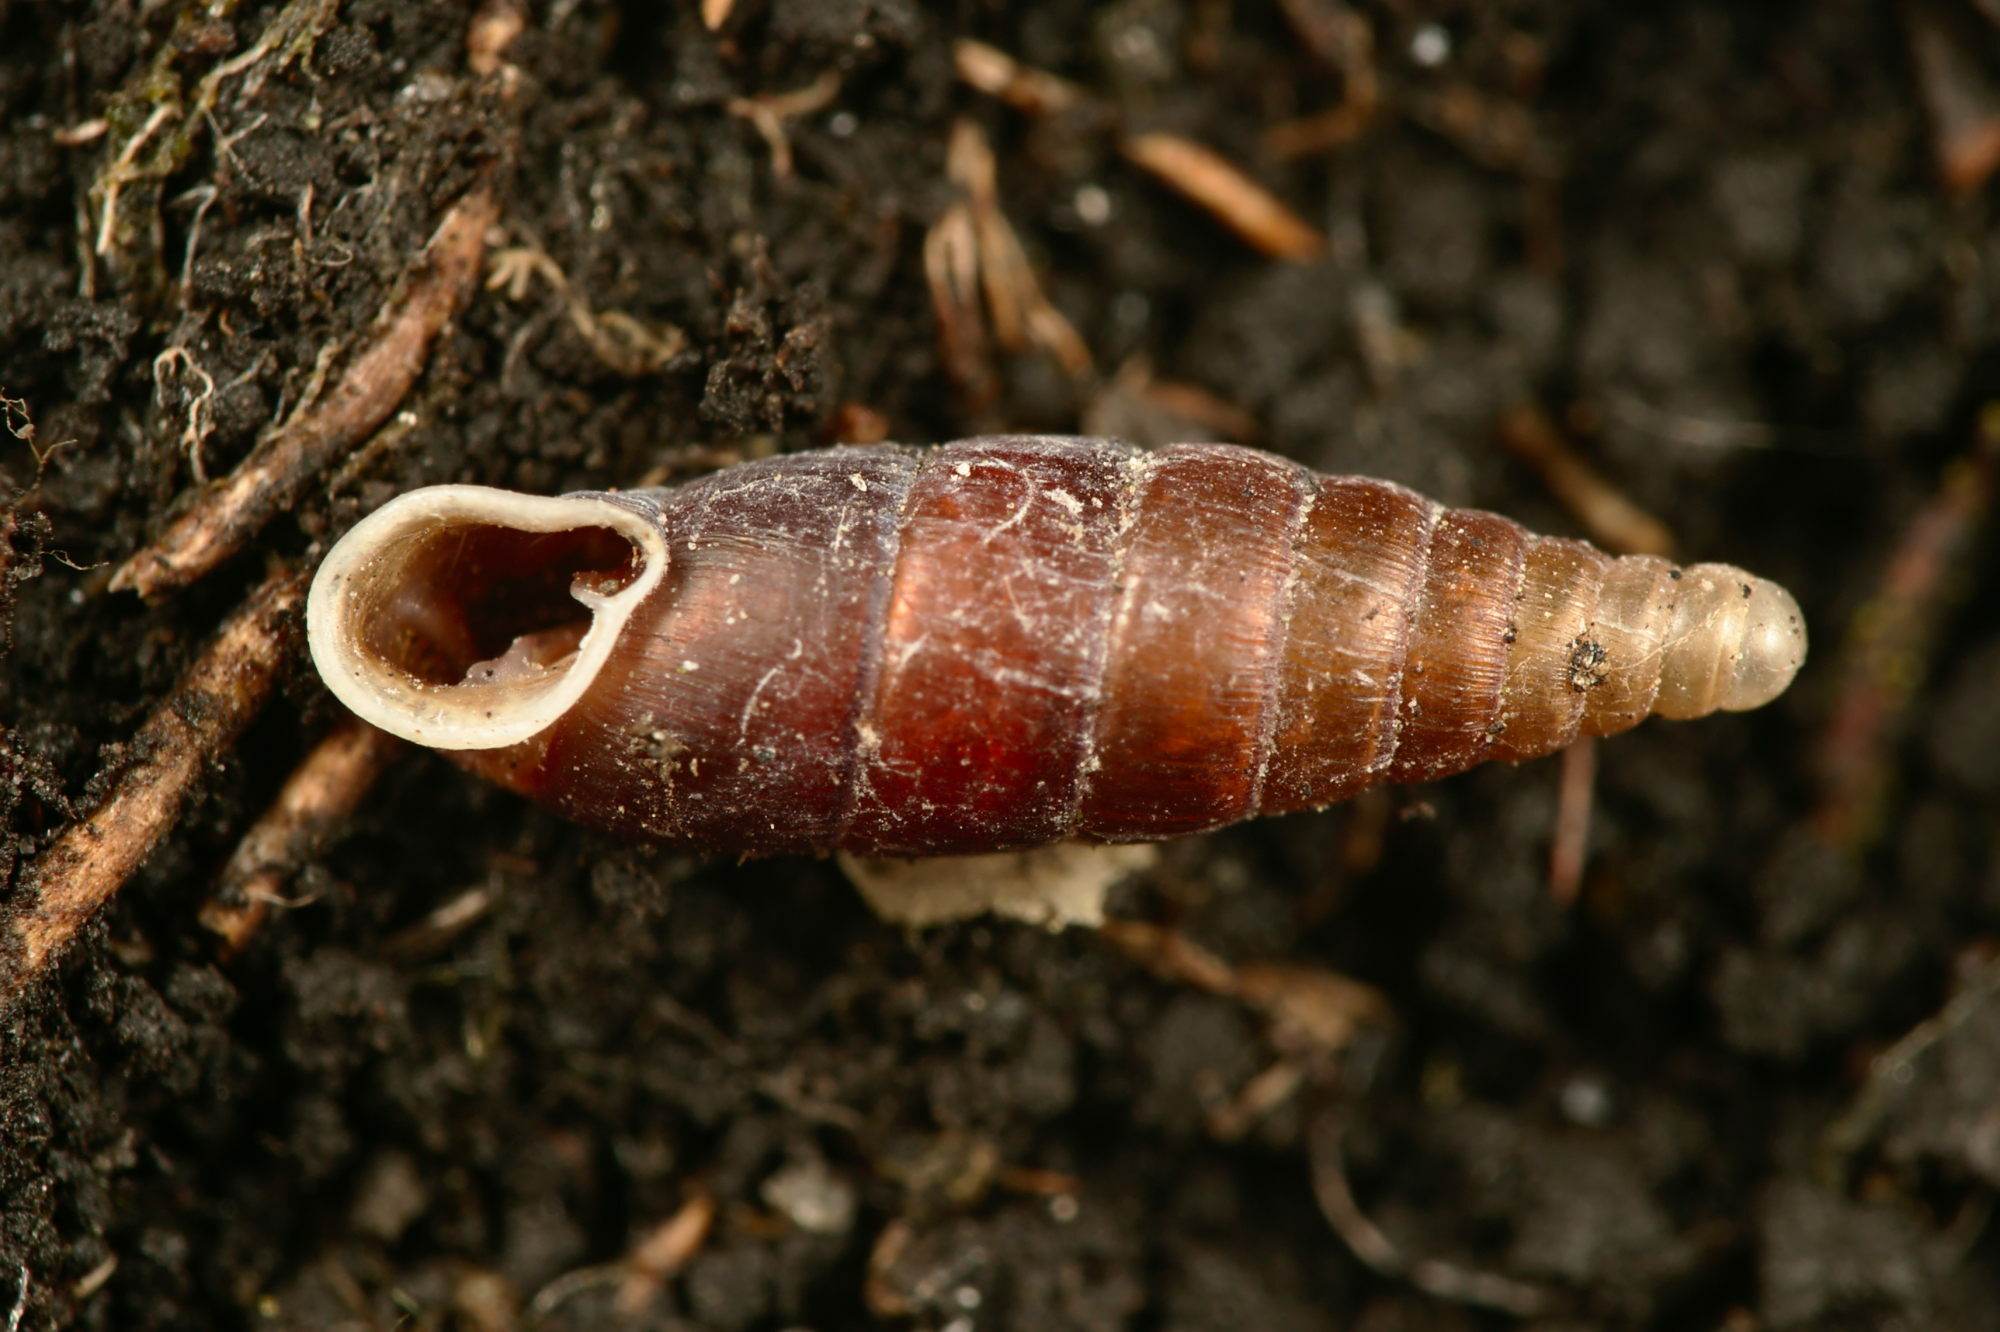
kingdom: Animalia
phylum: Mollusca
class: Gastropoda
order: Stylommatophora
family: Clausiliidae
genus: Clausilia
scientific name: Clausilia rugosa
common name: Tiny door snail
